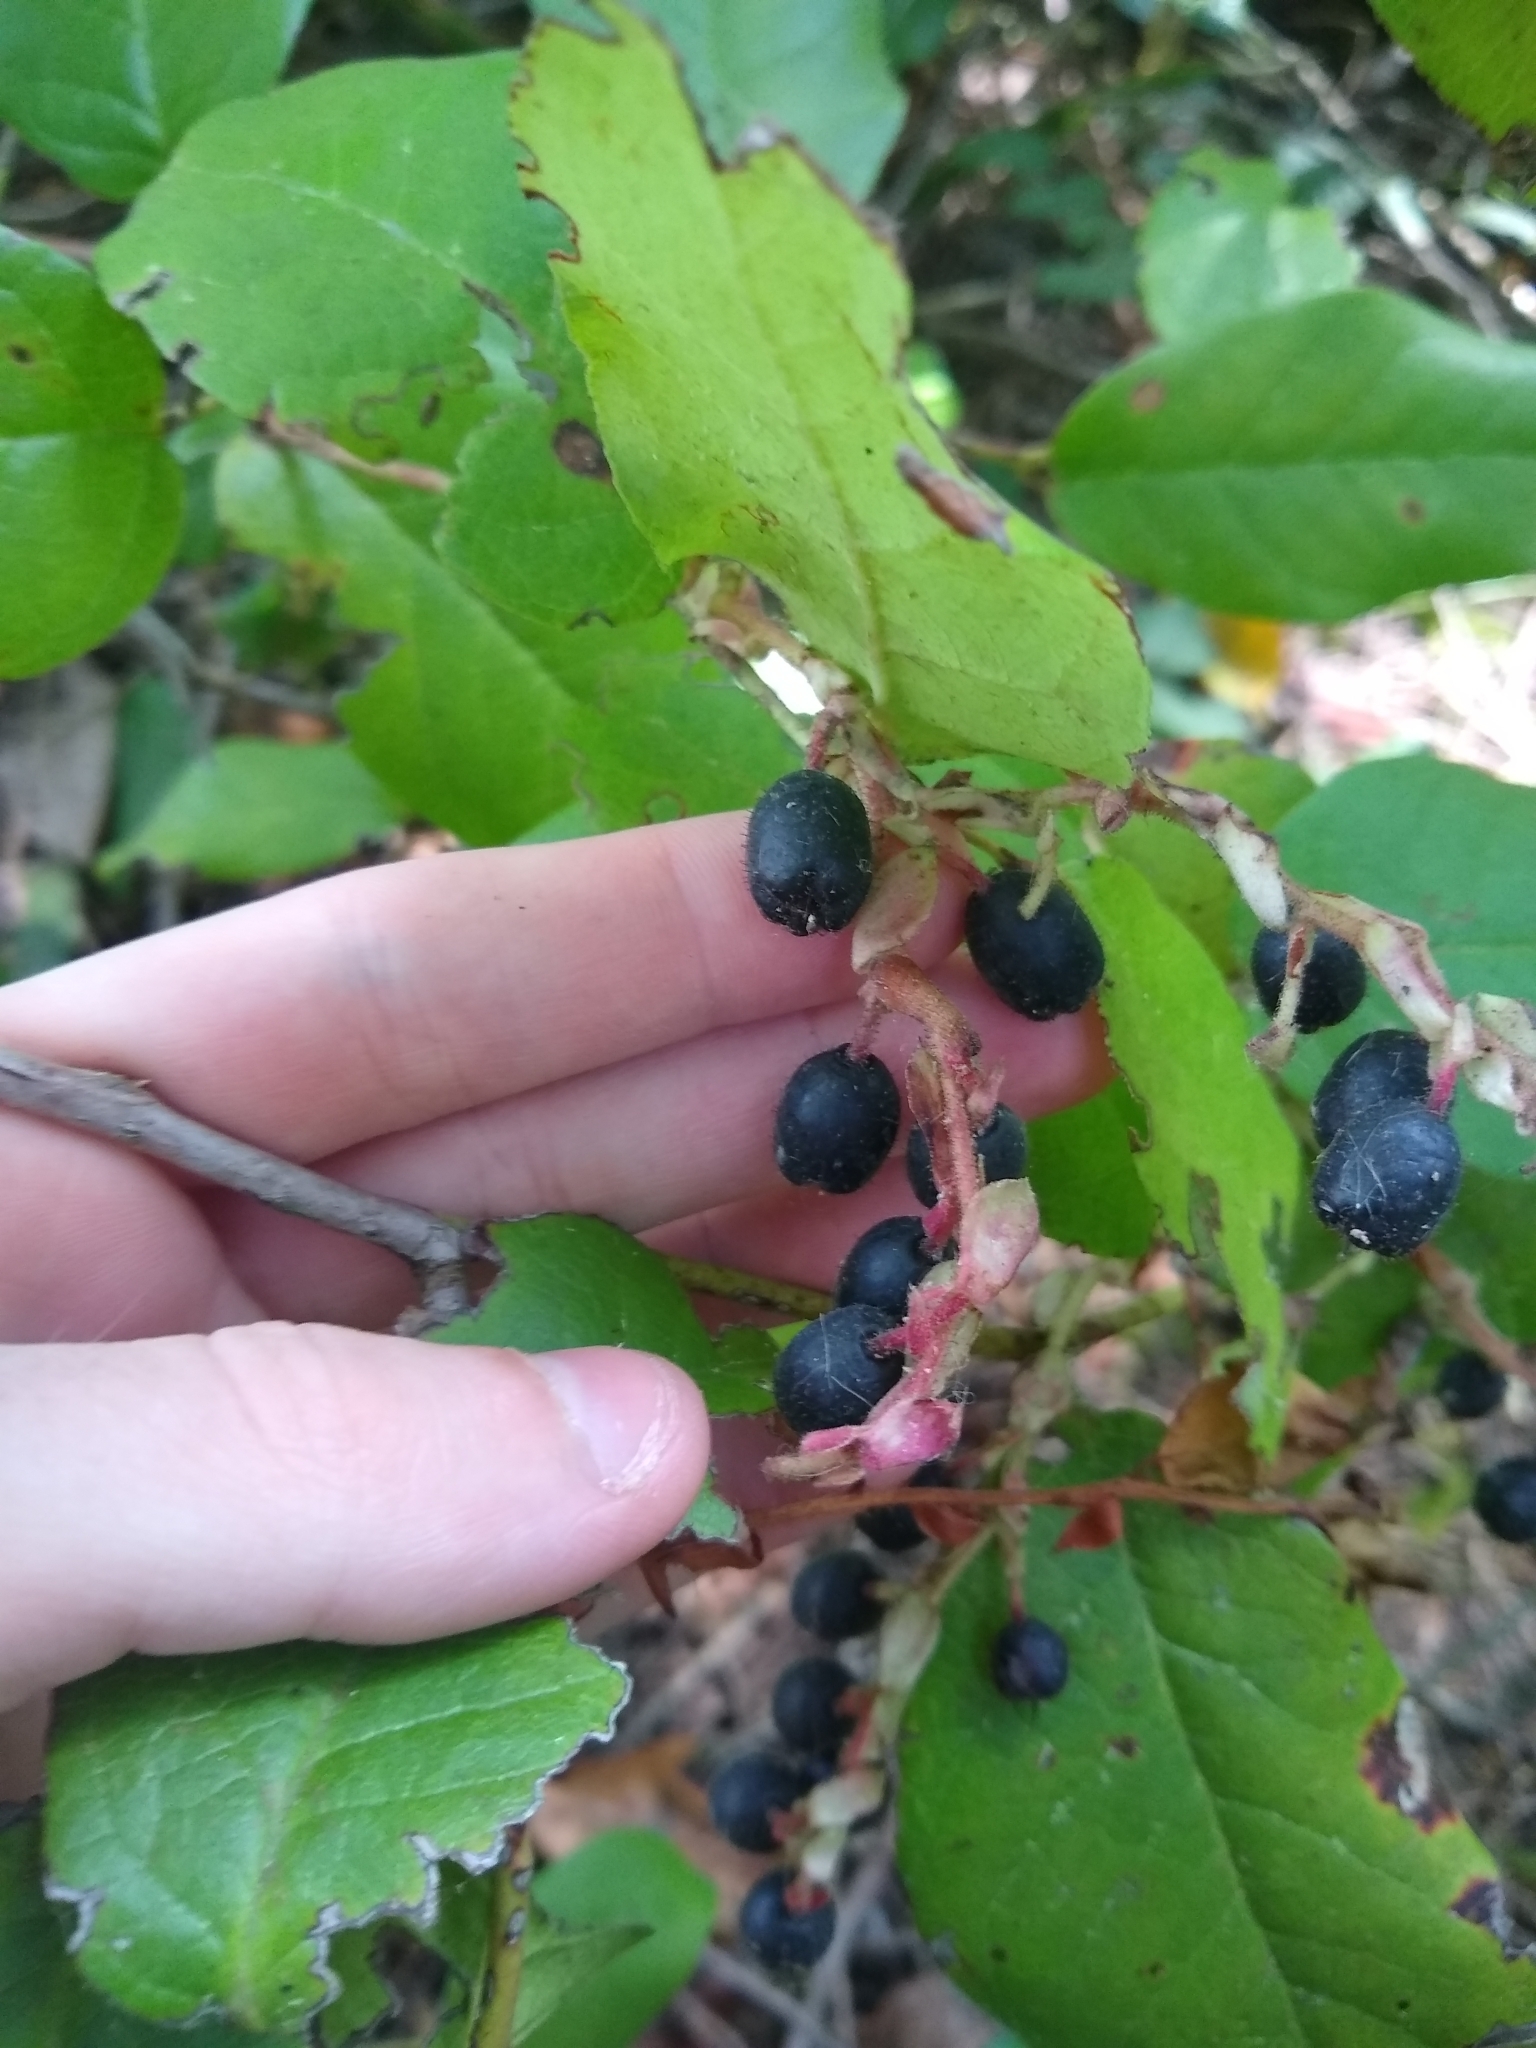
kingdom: Plantae
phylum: Tracheophyta
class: Magnoliopsida
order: Ericales
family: Ericaceae
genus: Gaultheria
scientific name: Gaultheria shallon
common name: Shallon
